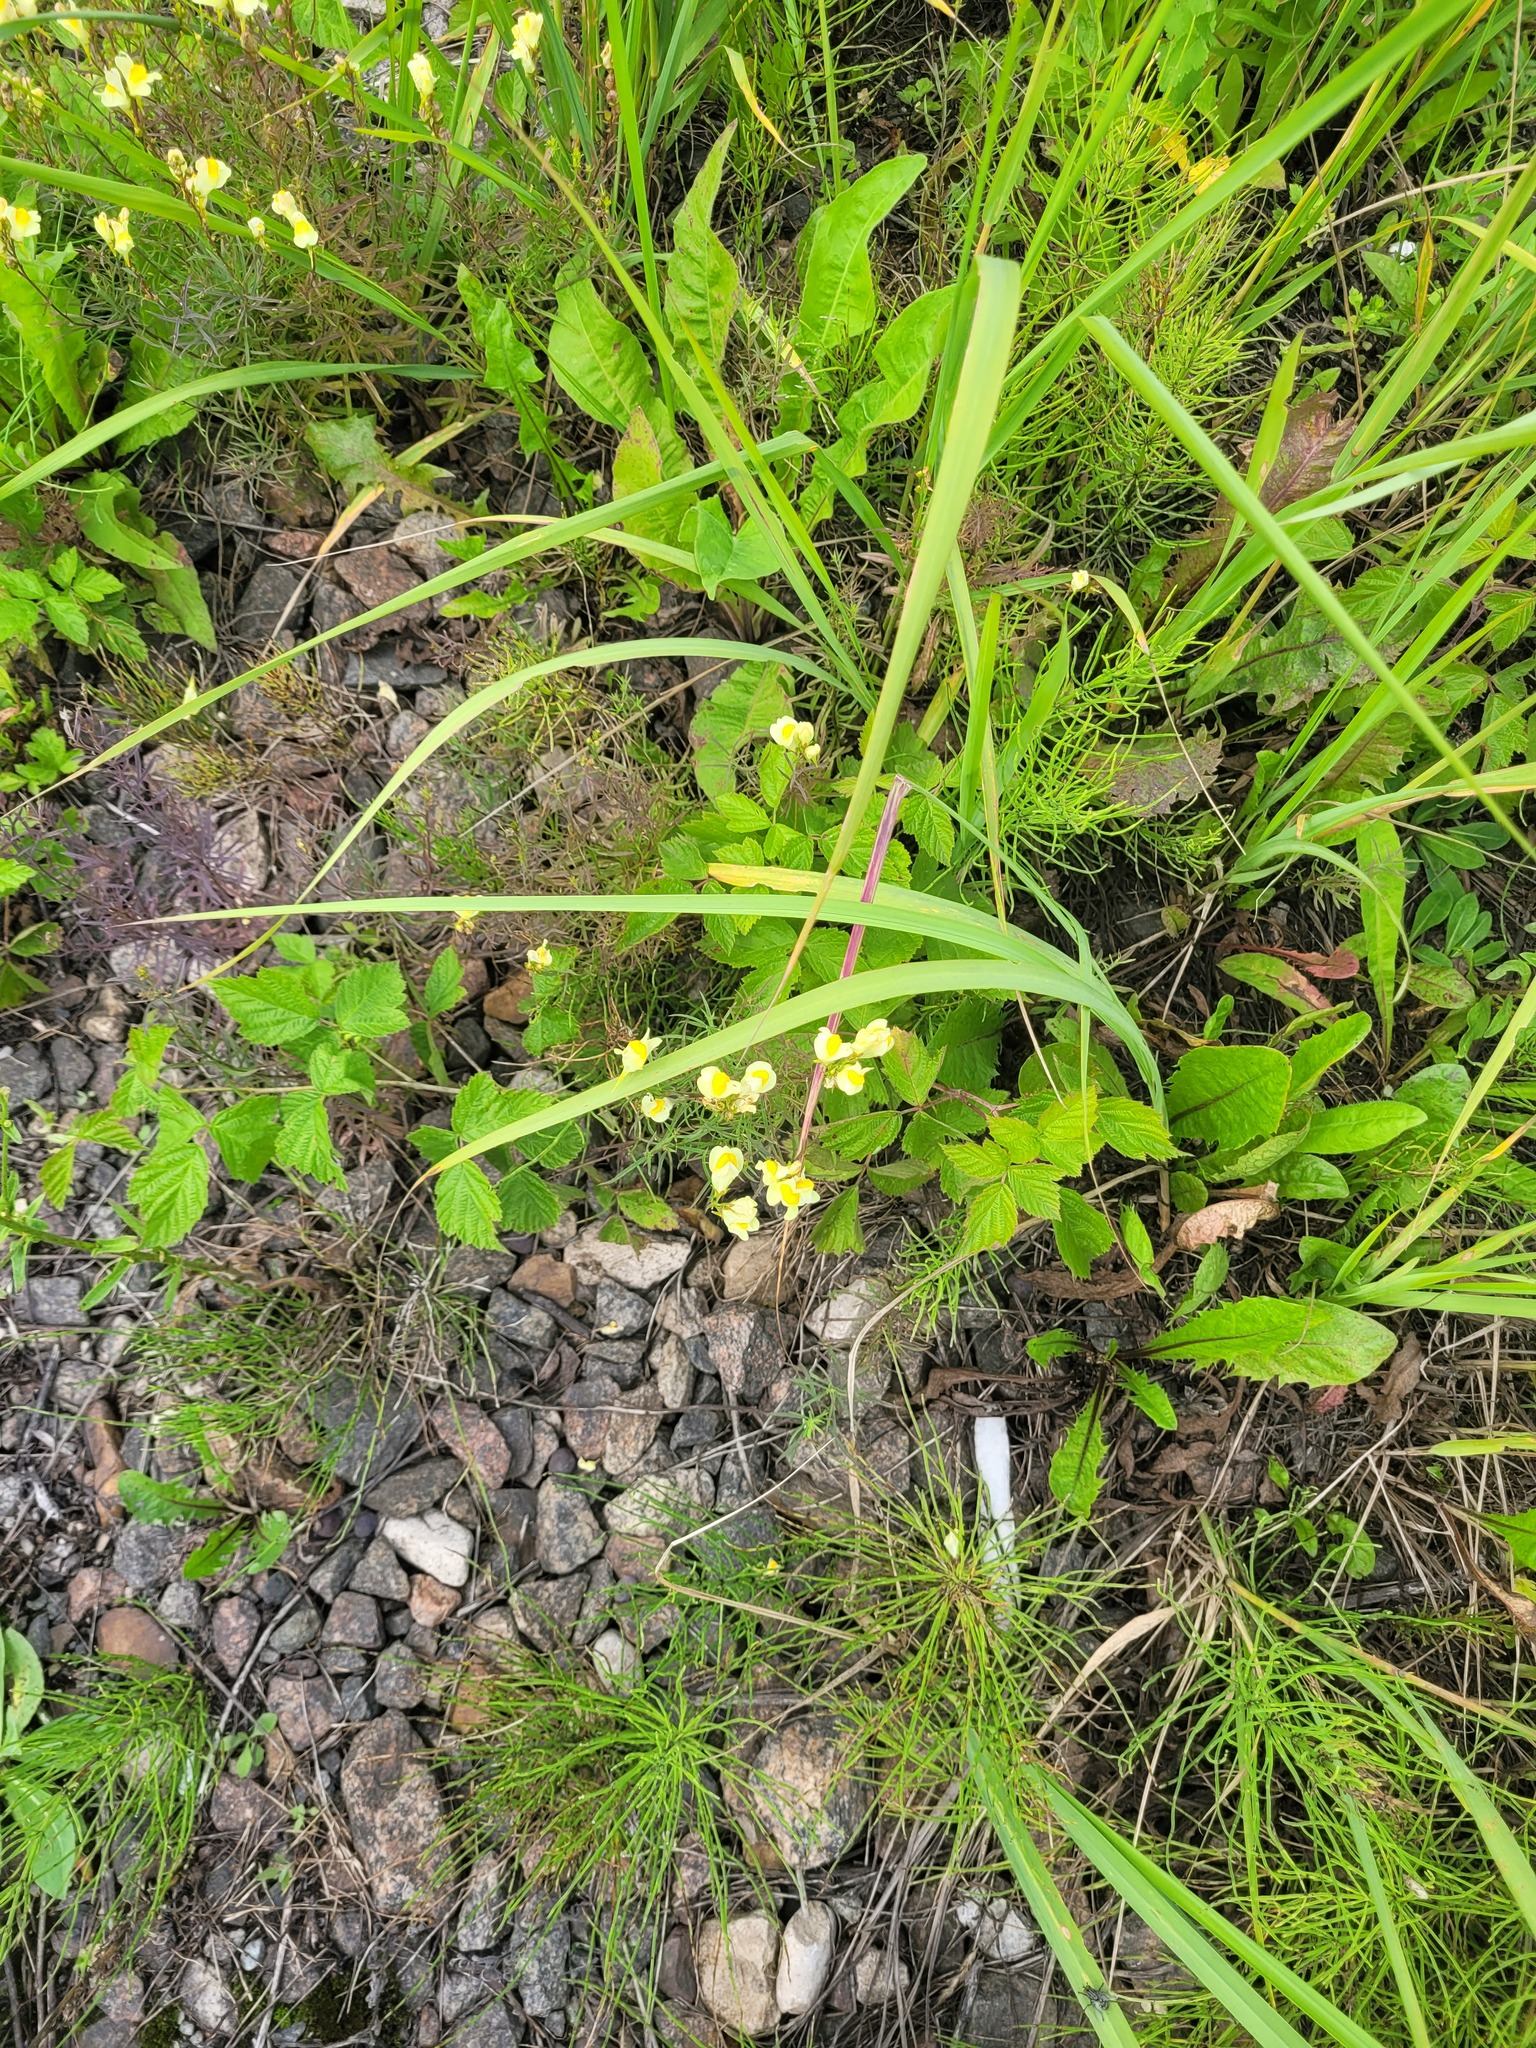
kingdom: Plantae
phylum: Tracheophyta
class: Magnoliopsida
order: Lamiales
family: Plantaginaceae
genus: Linaria
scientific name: Linaria vulgaris
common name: Butter and eggs
